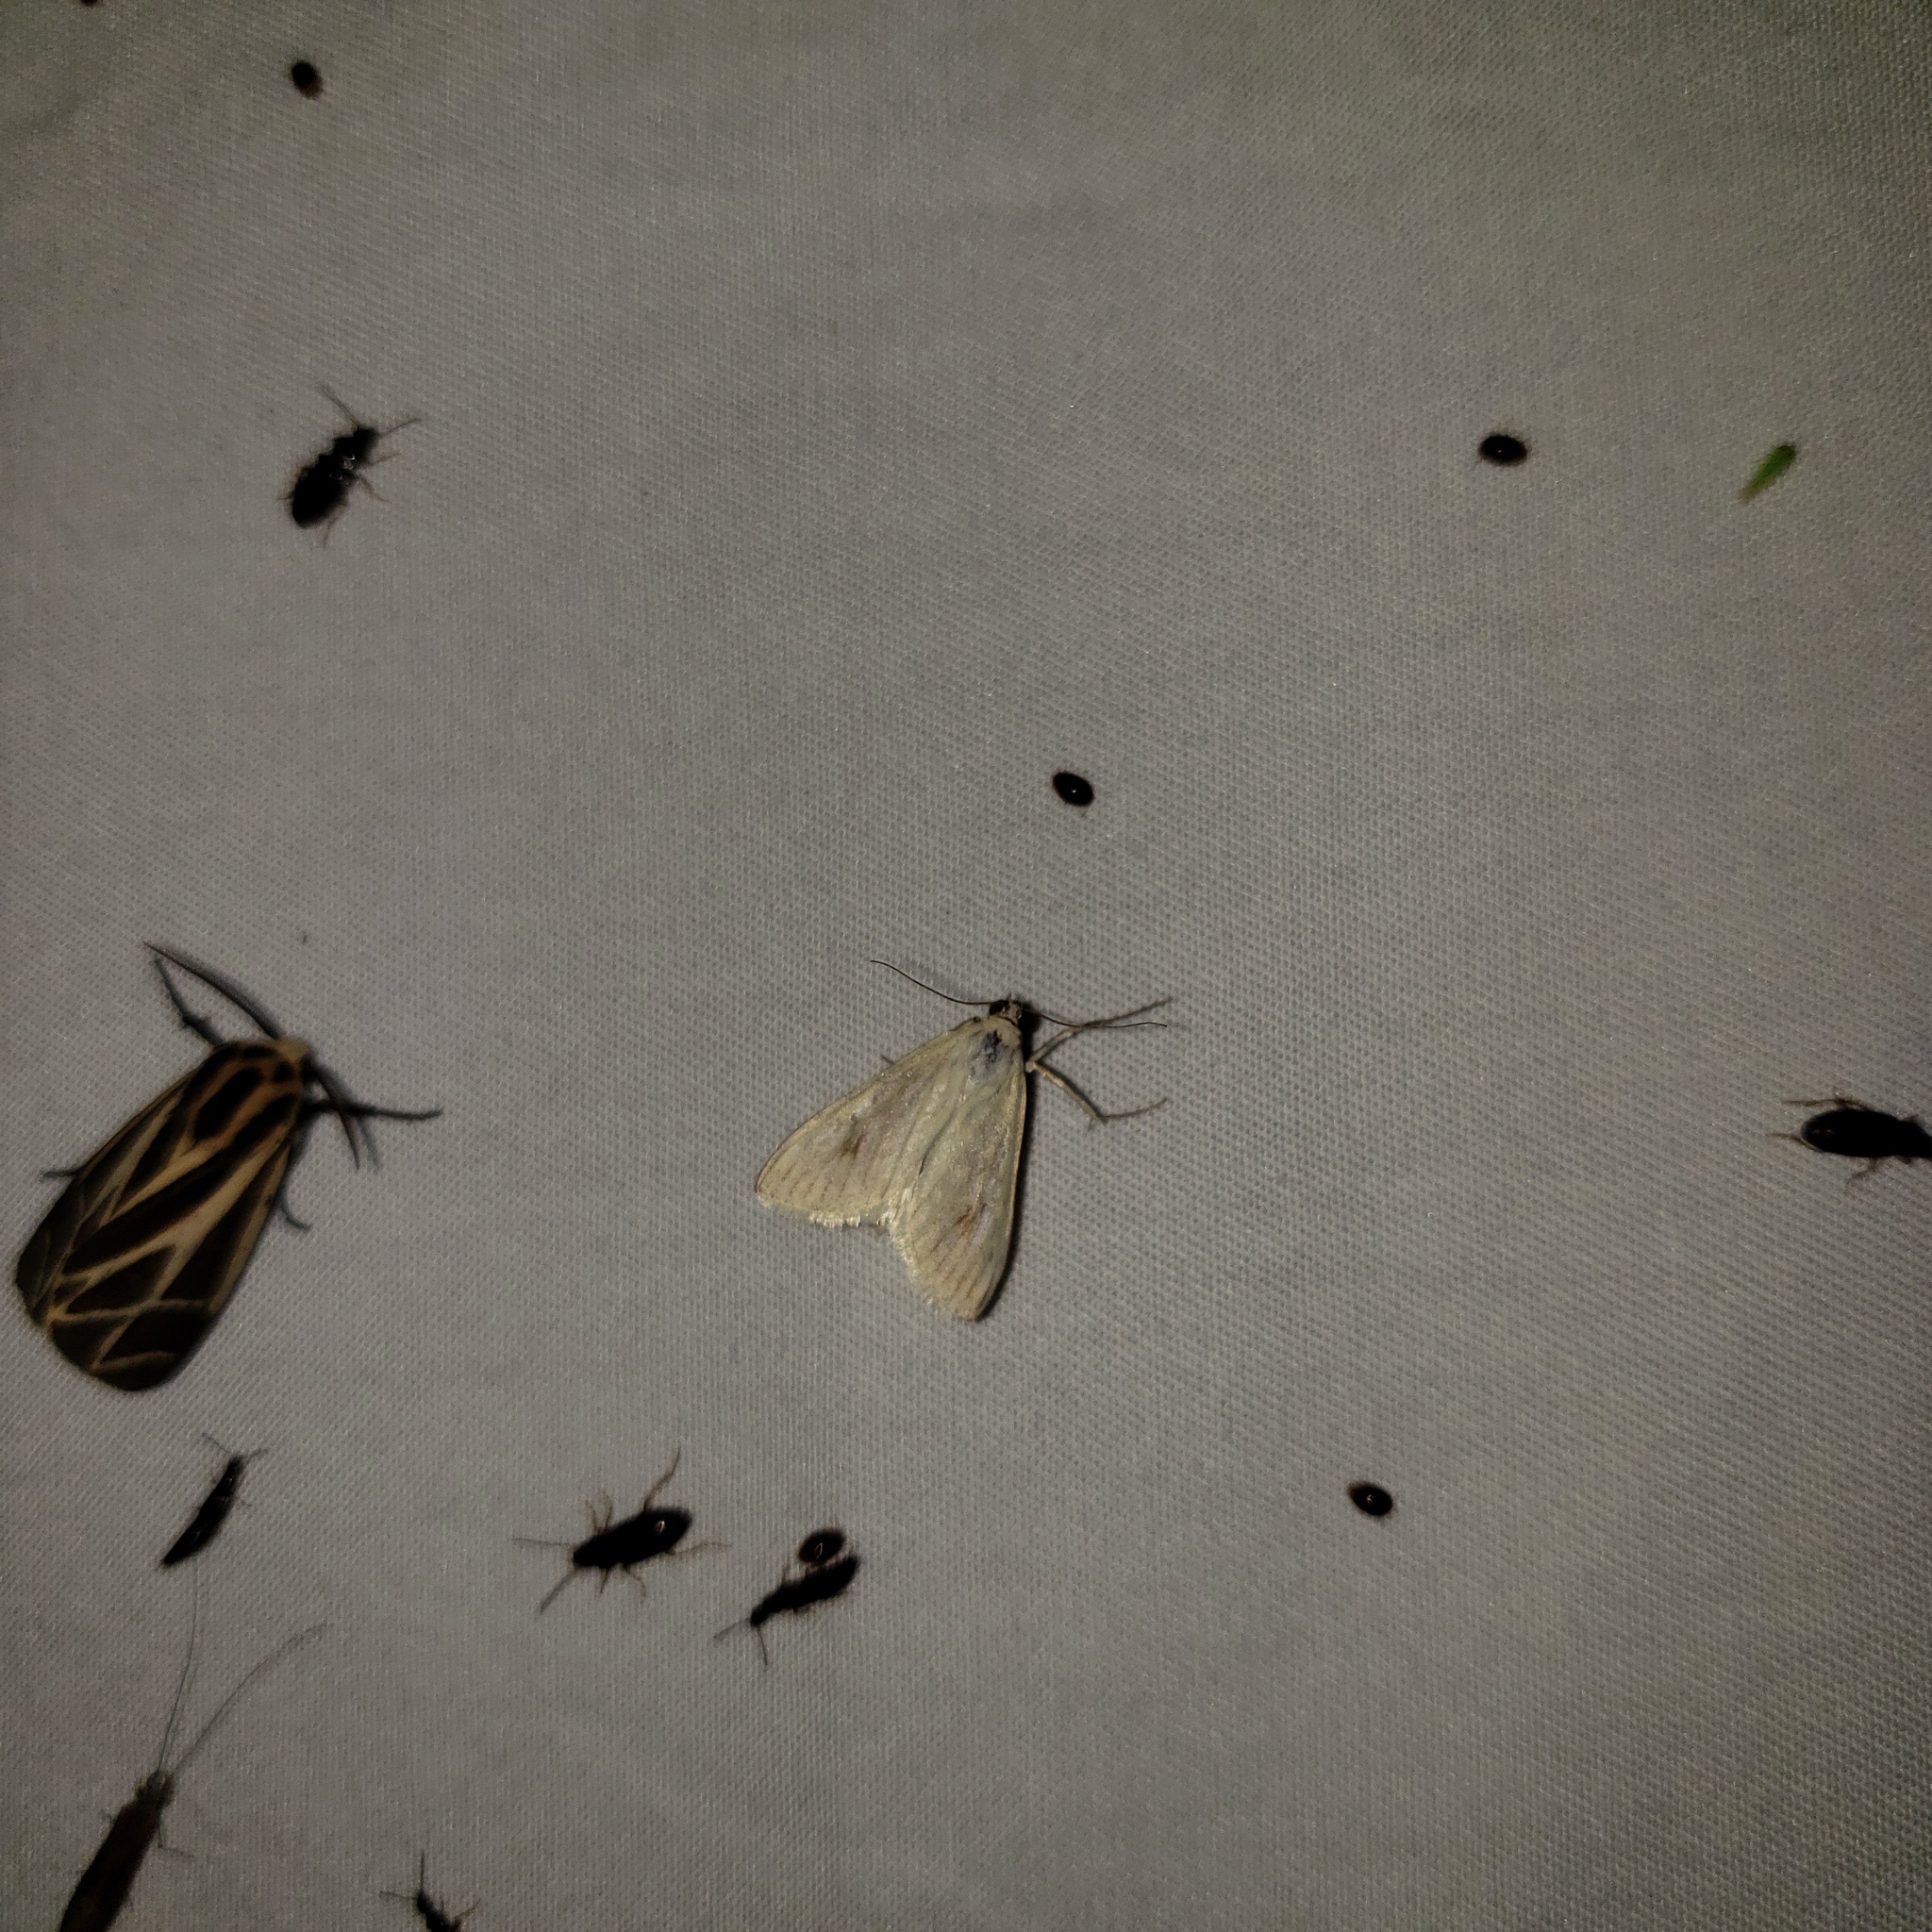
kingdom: Animalia
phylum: Arthropoda
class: Insecta
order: Lepidoptera
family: Crambidae
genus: Sitochroa
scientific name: Sitochroa palealis
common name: Greenish-yellow sitochroa moth
